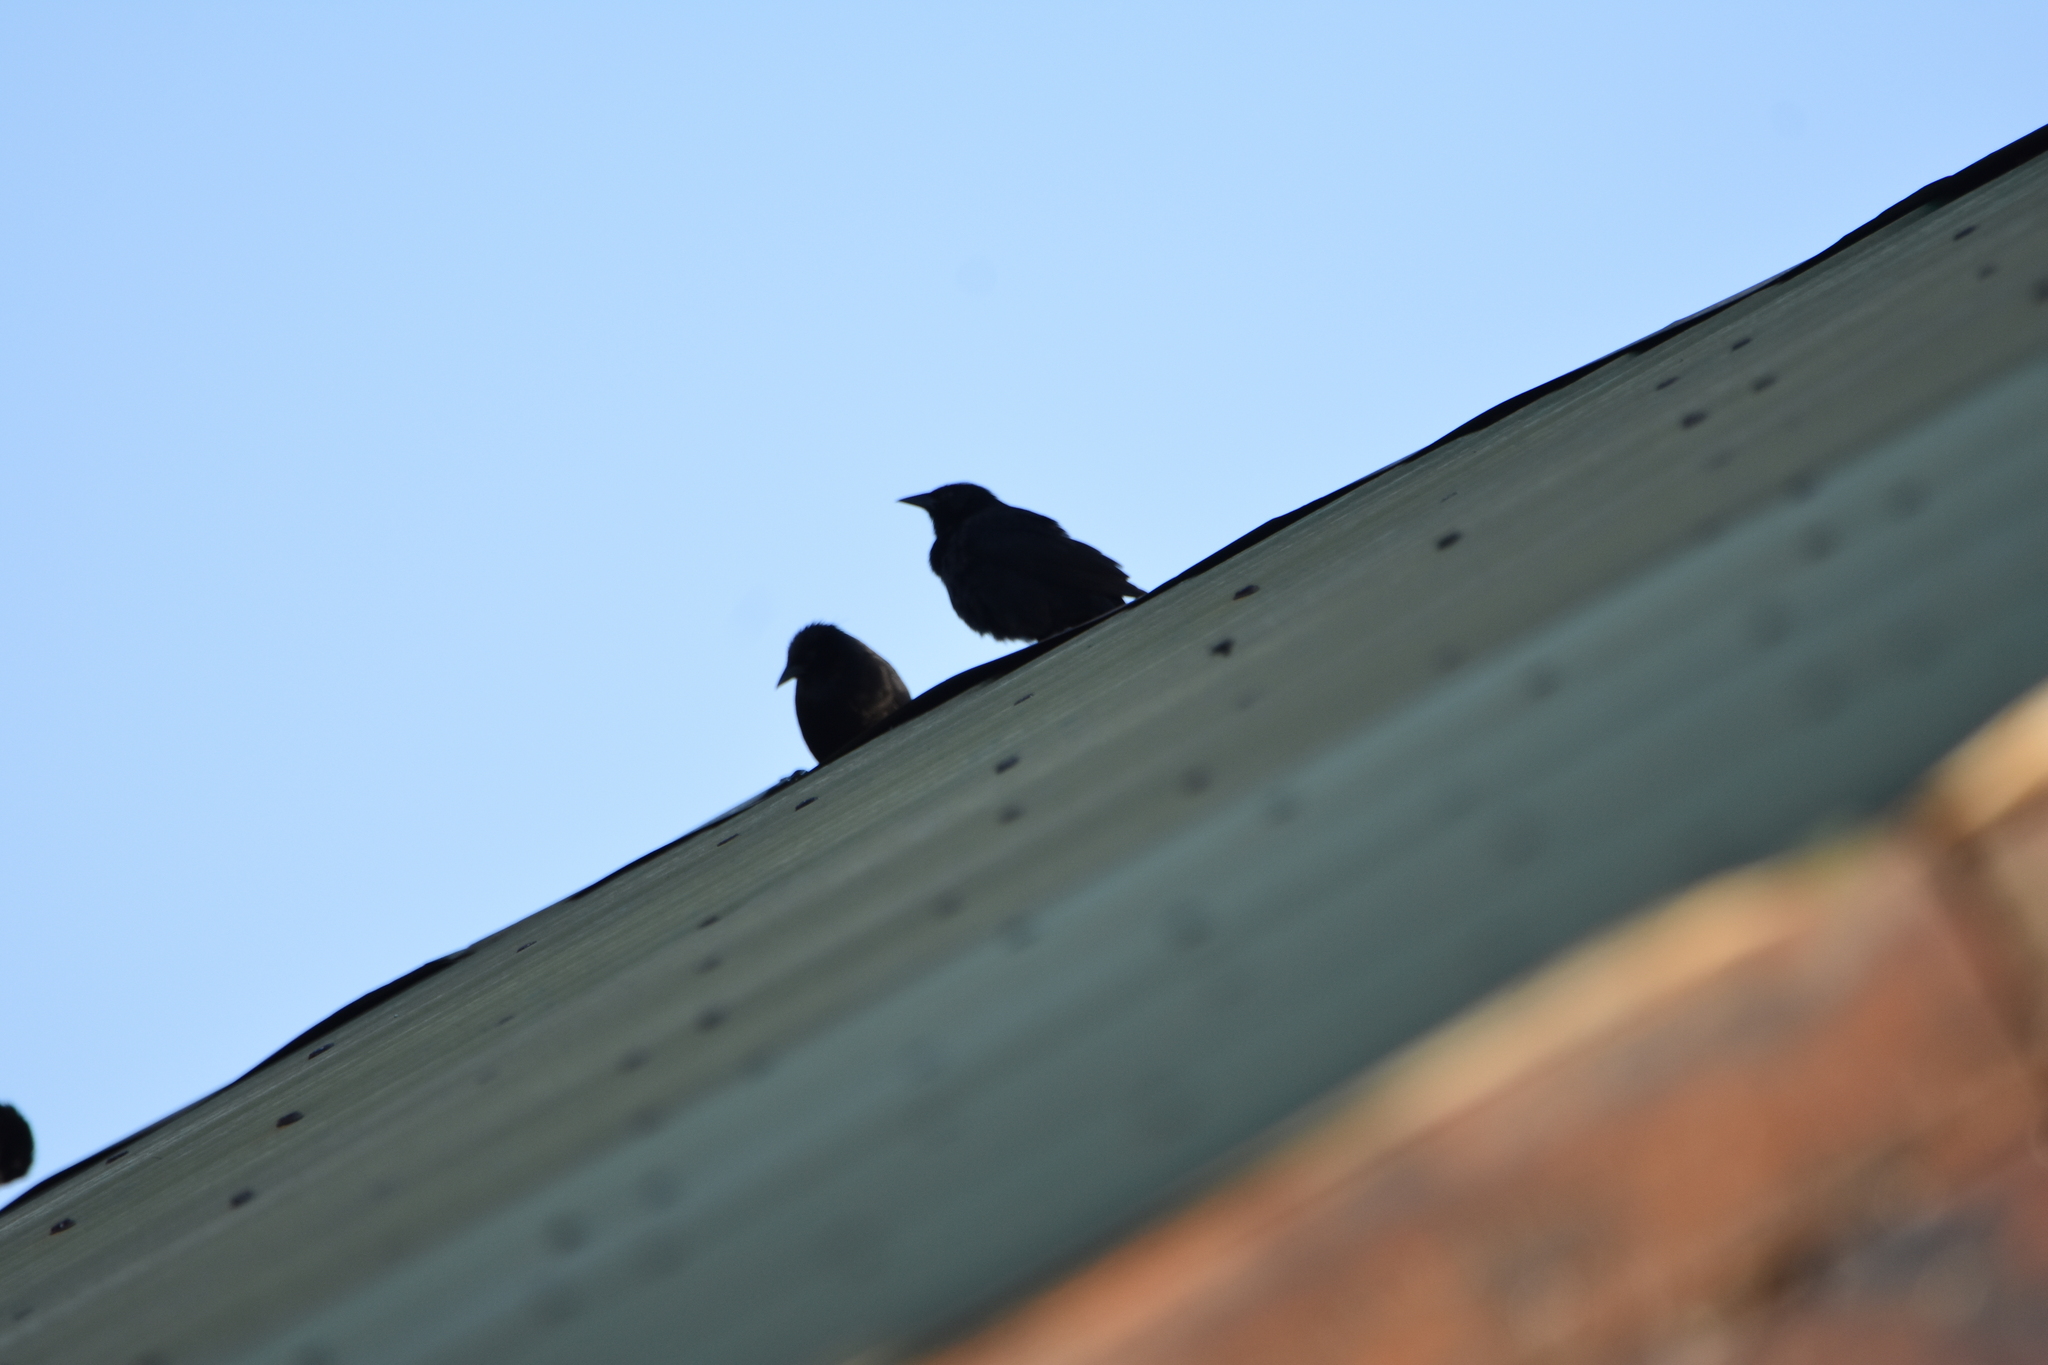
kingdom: Animalia
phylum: Chordata
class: Aves
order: Passeriformes
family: Icteridae
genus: Gnorimopsar
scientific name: Gnorimopsar chopi
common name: Chopi blackbird
